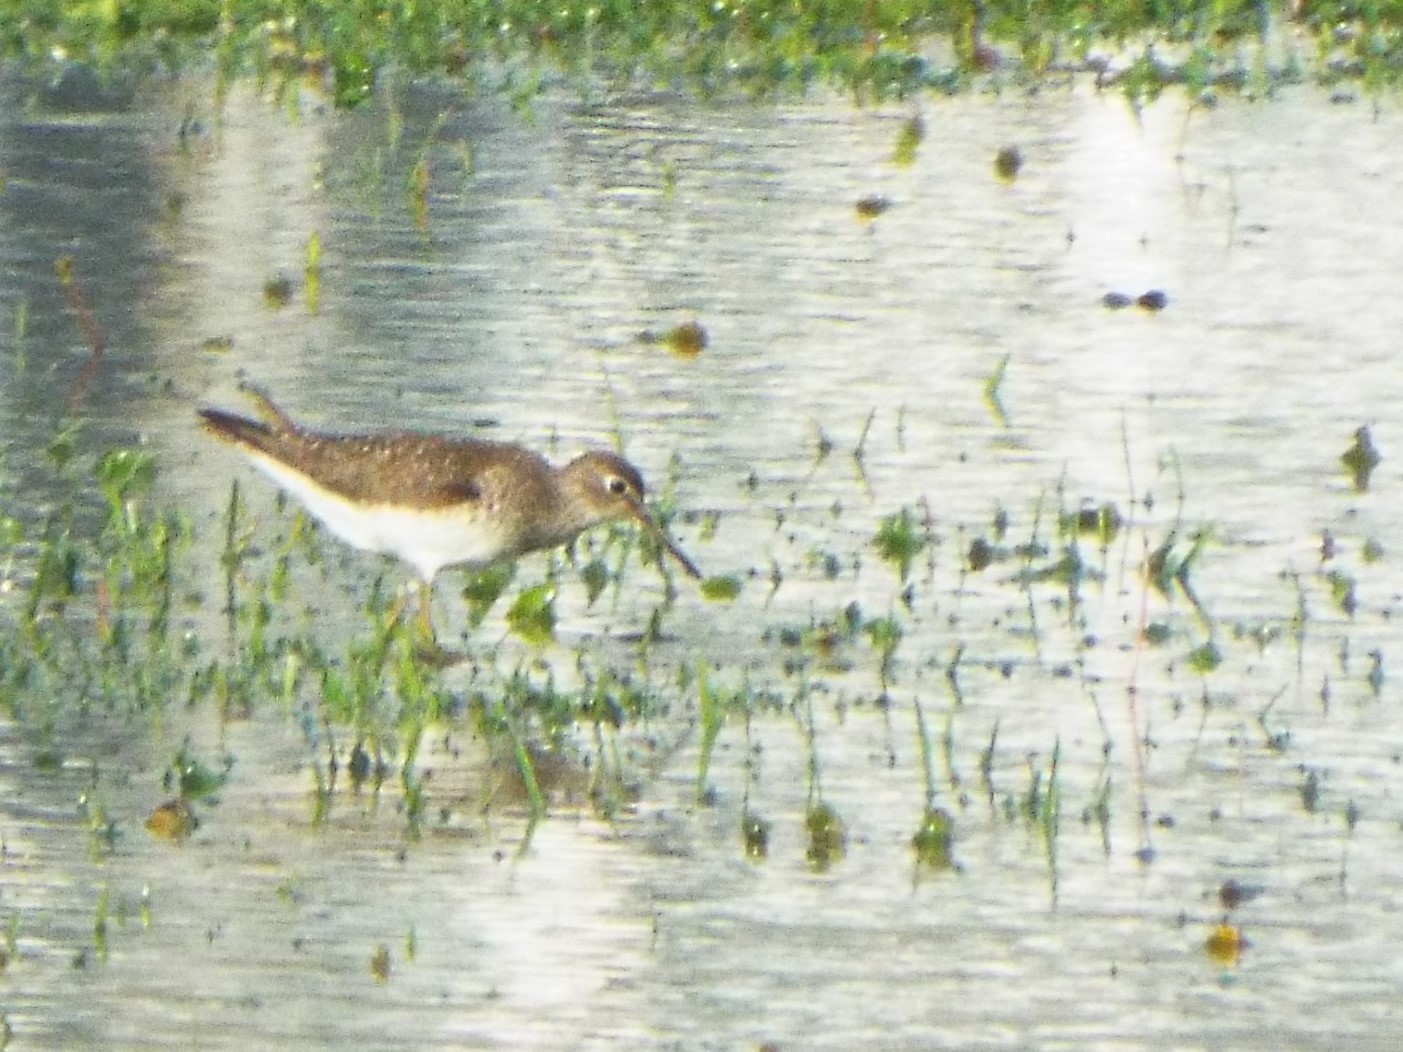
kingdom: Animalia
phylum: Chordata
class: Aves
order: Charadriiformes
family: Scolopacidae
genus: Tringa
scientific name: Tringa solitaria
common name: Solitary sandpiper
